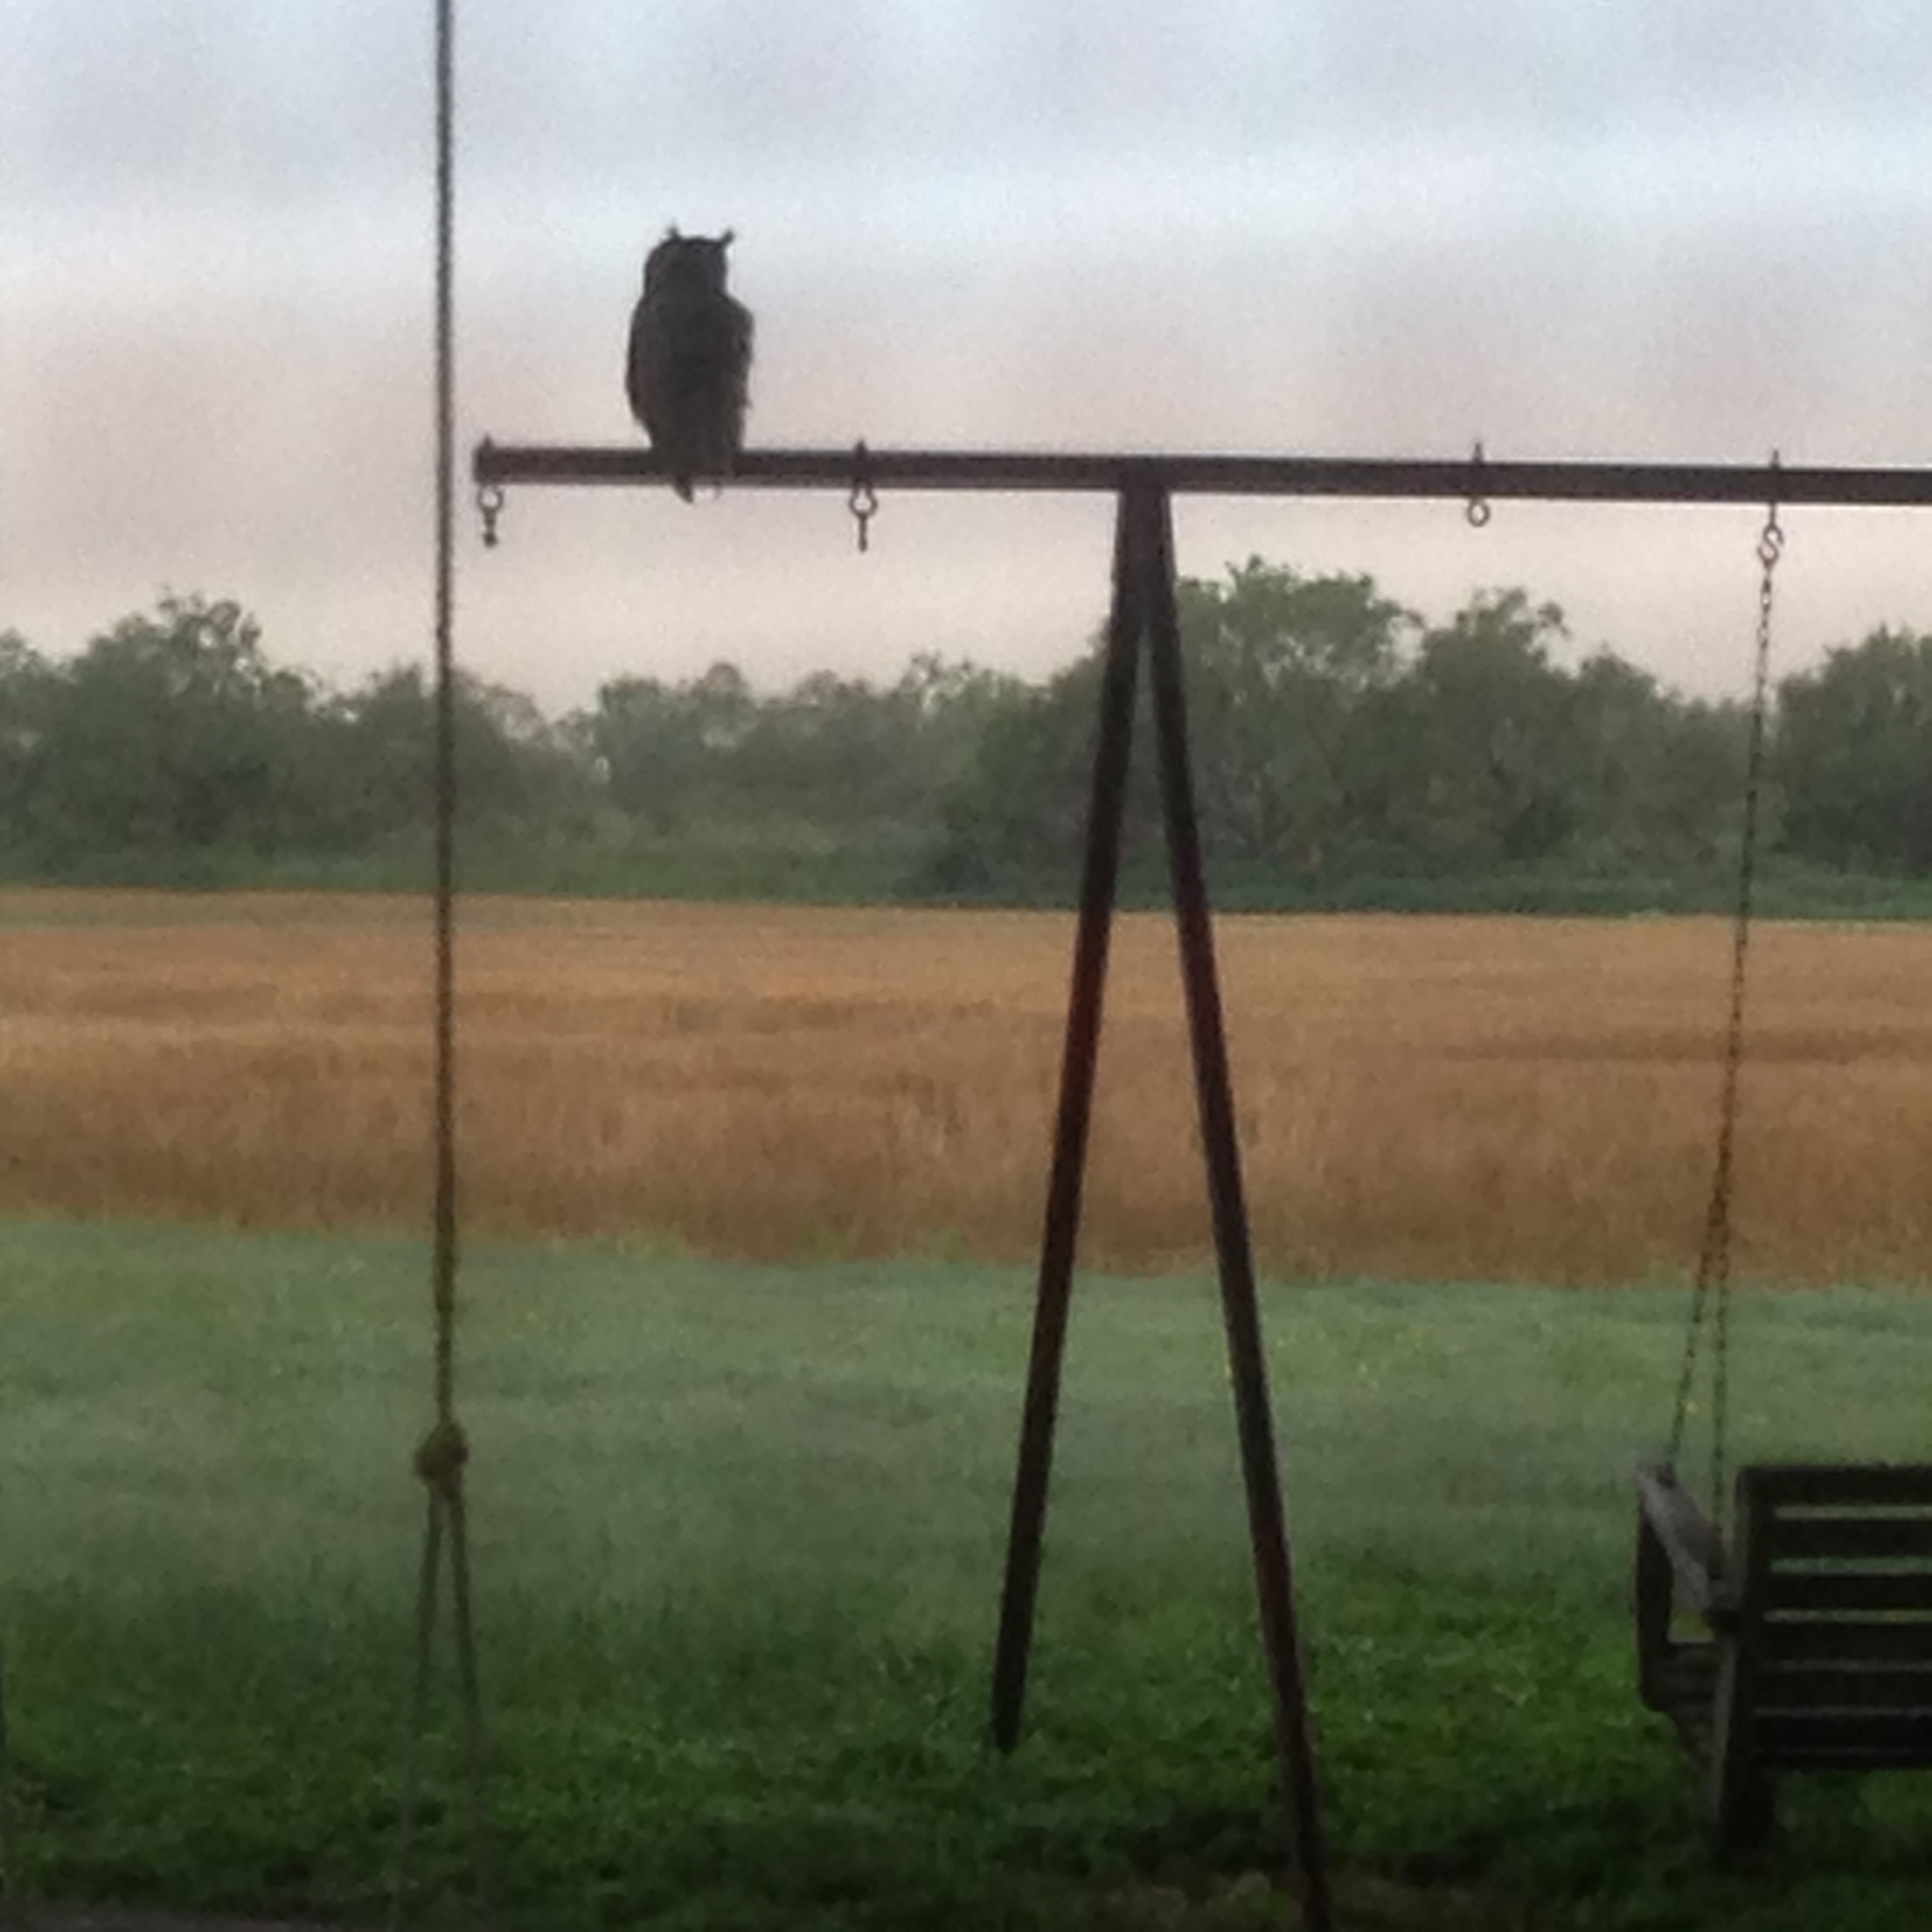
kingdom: Animalia
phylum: Chordata
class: Aves
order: Strigiformes
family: Strigidae
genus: Bubo
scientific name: Bubo virginianus
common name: Great horned owl
